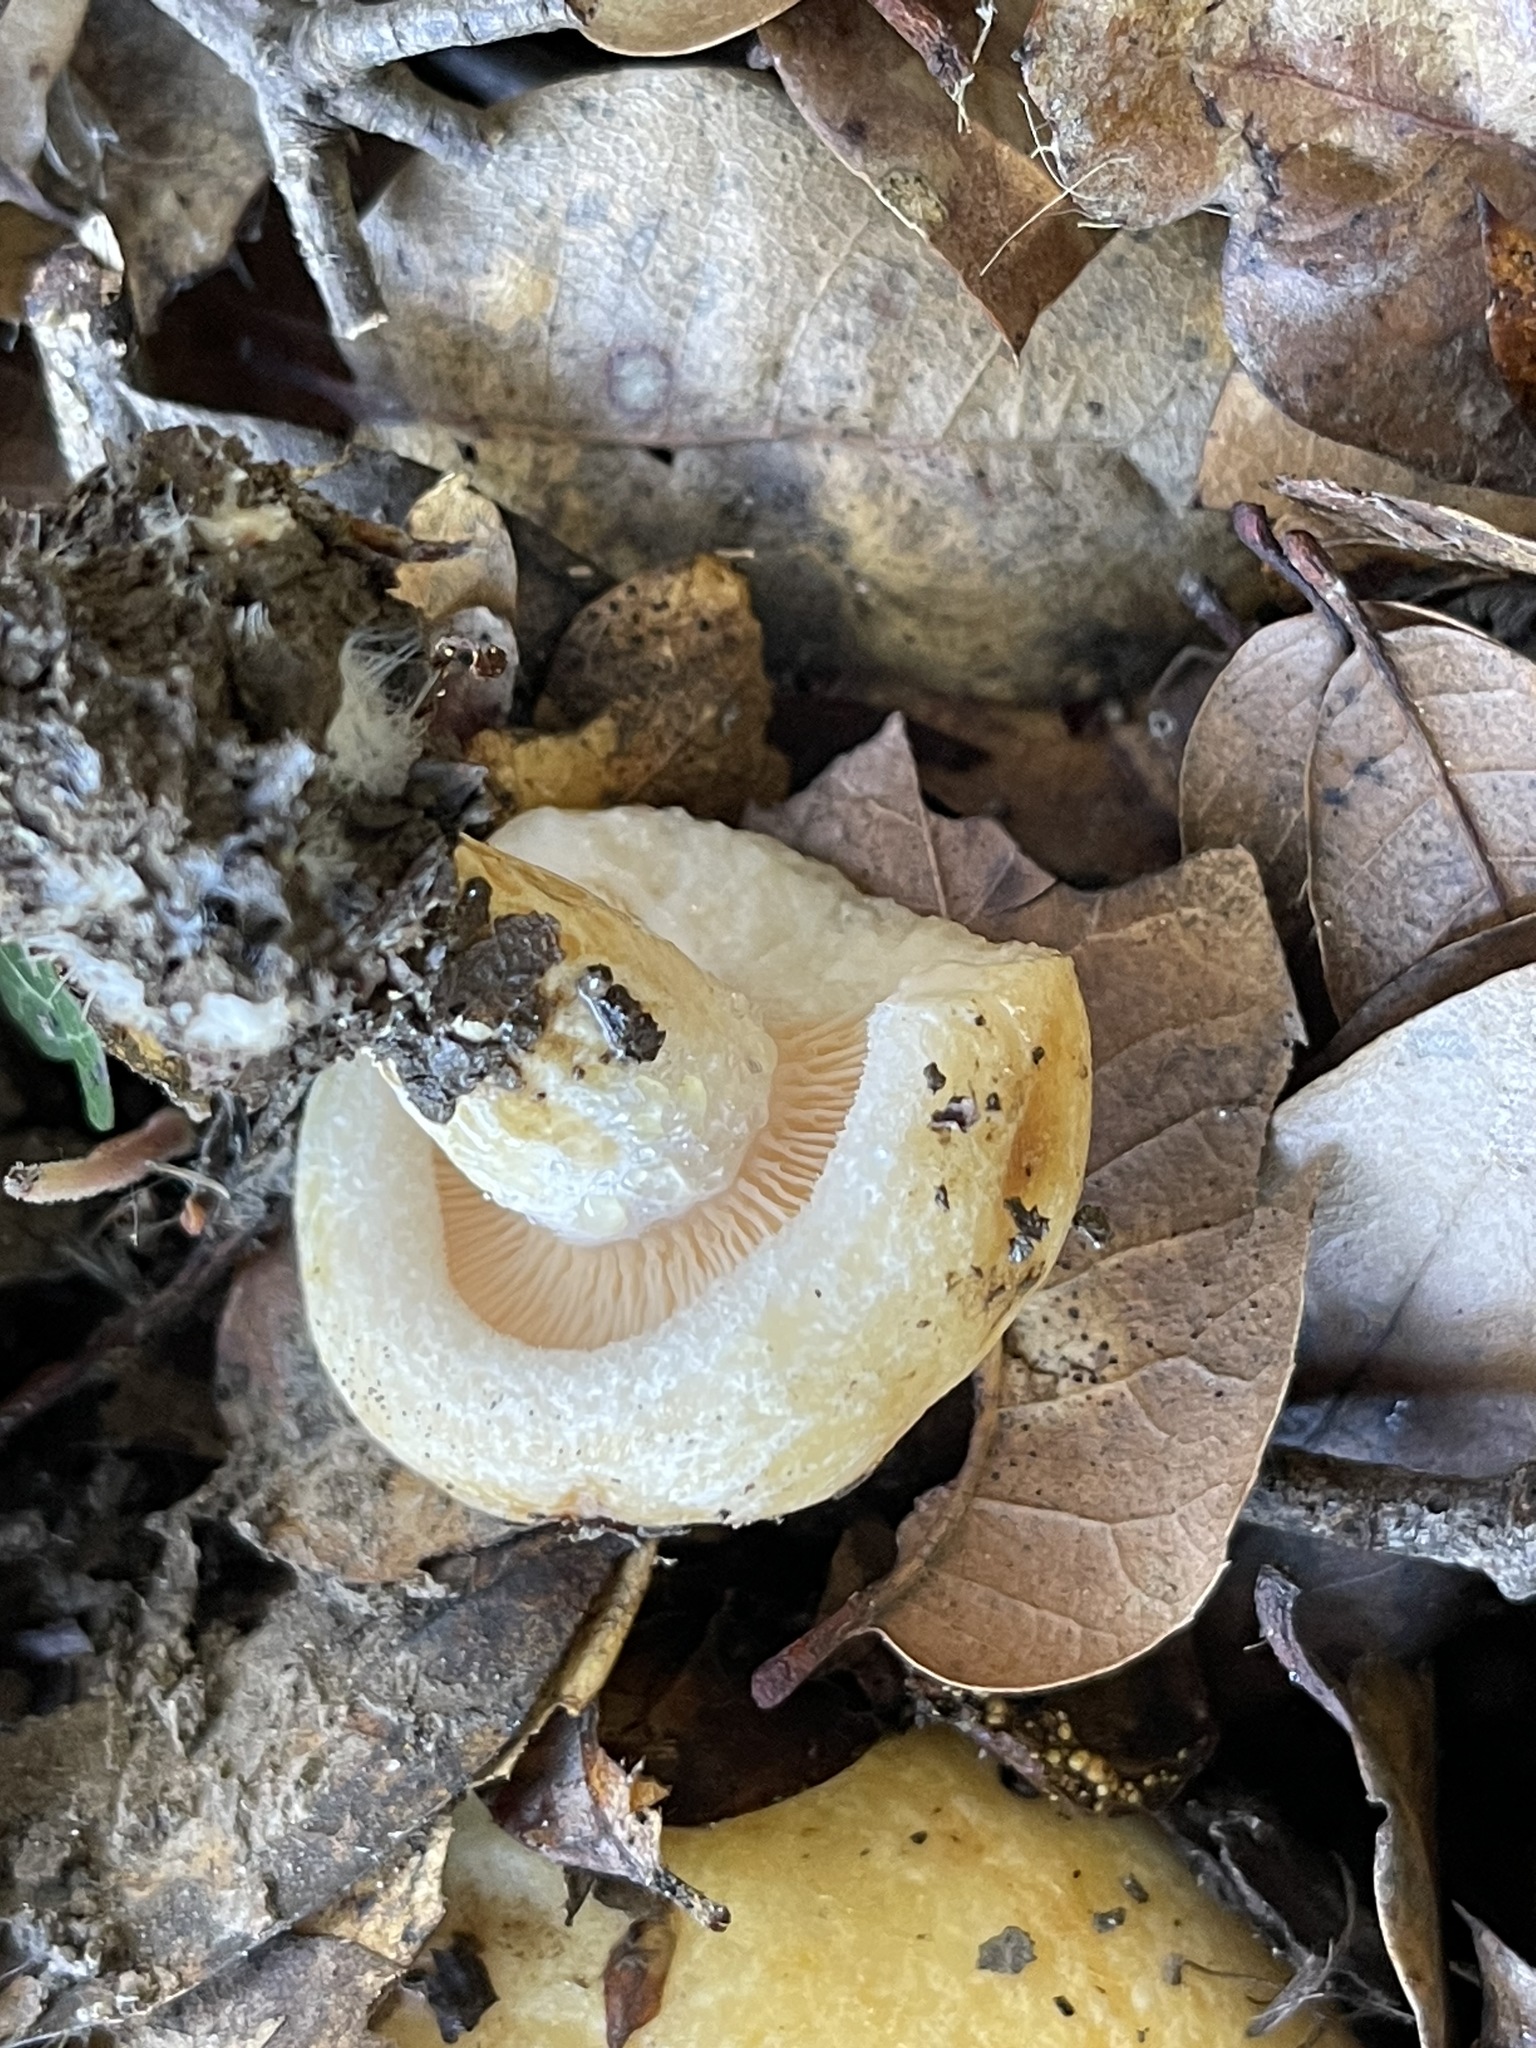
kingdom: Fungi
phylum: Basidiomycota
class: Agaricomycetes
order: Russulales
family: Russulaceae
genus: Lactarius
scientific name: Lactarius alnicola
